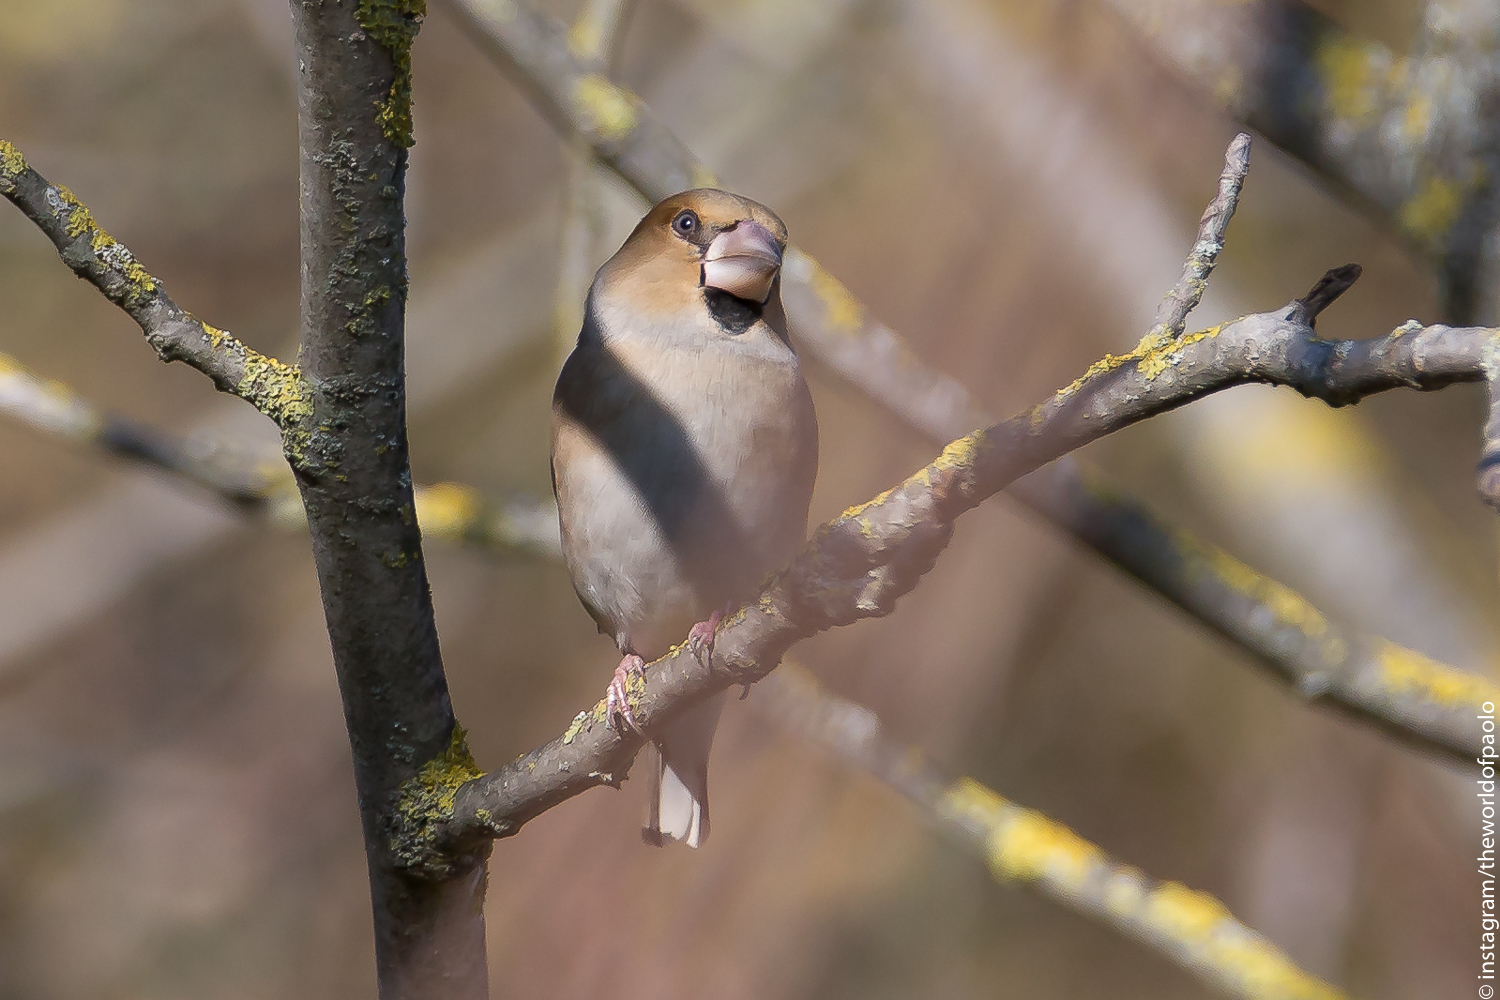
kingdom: Animalia
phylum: Chordata
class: Aves
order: Passeriformes
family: Fringillidae
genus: Coccothraustes
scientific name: Coccothraustes coccothraustes
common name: Hawfinch
